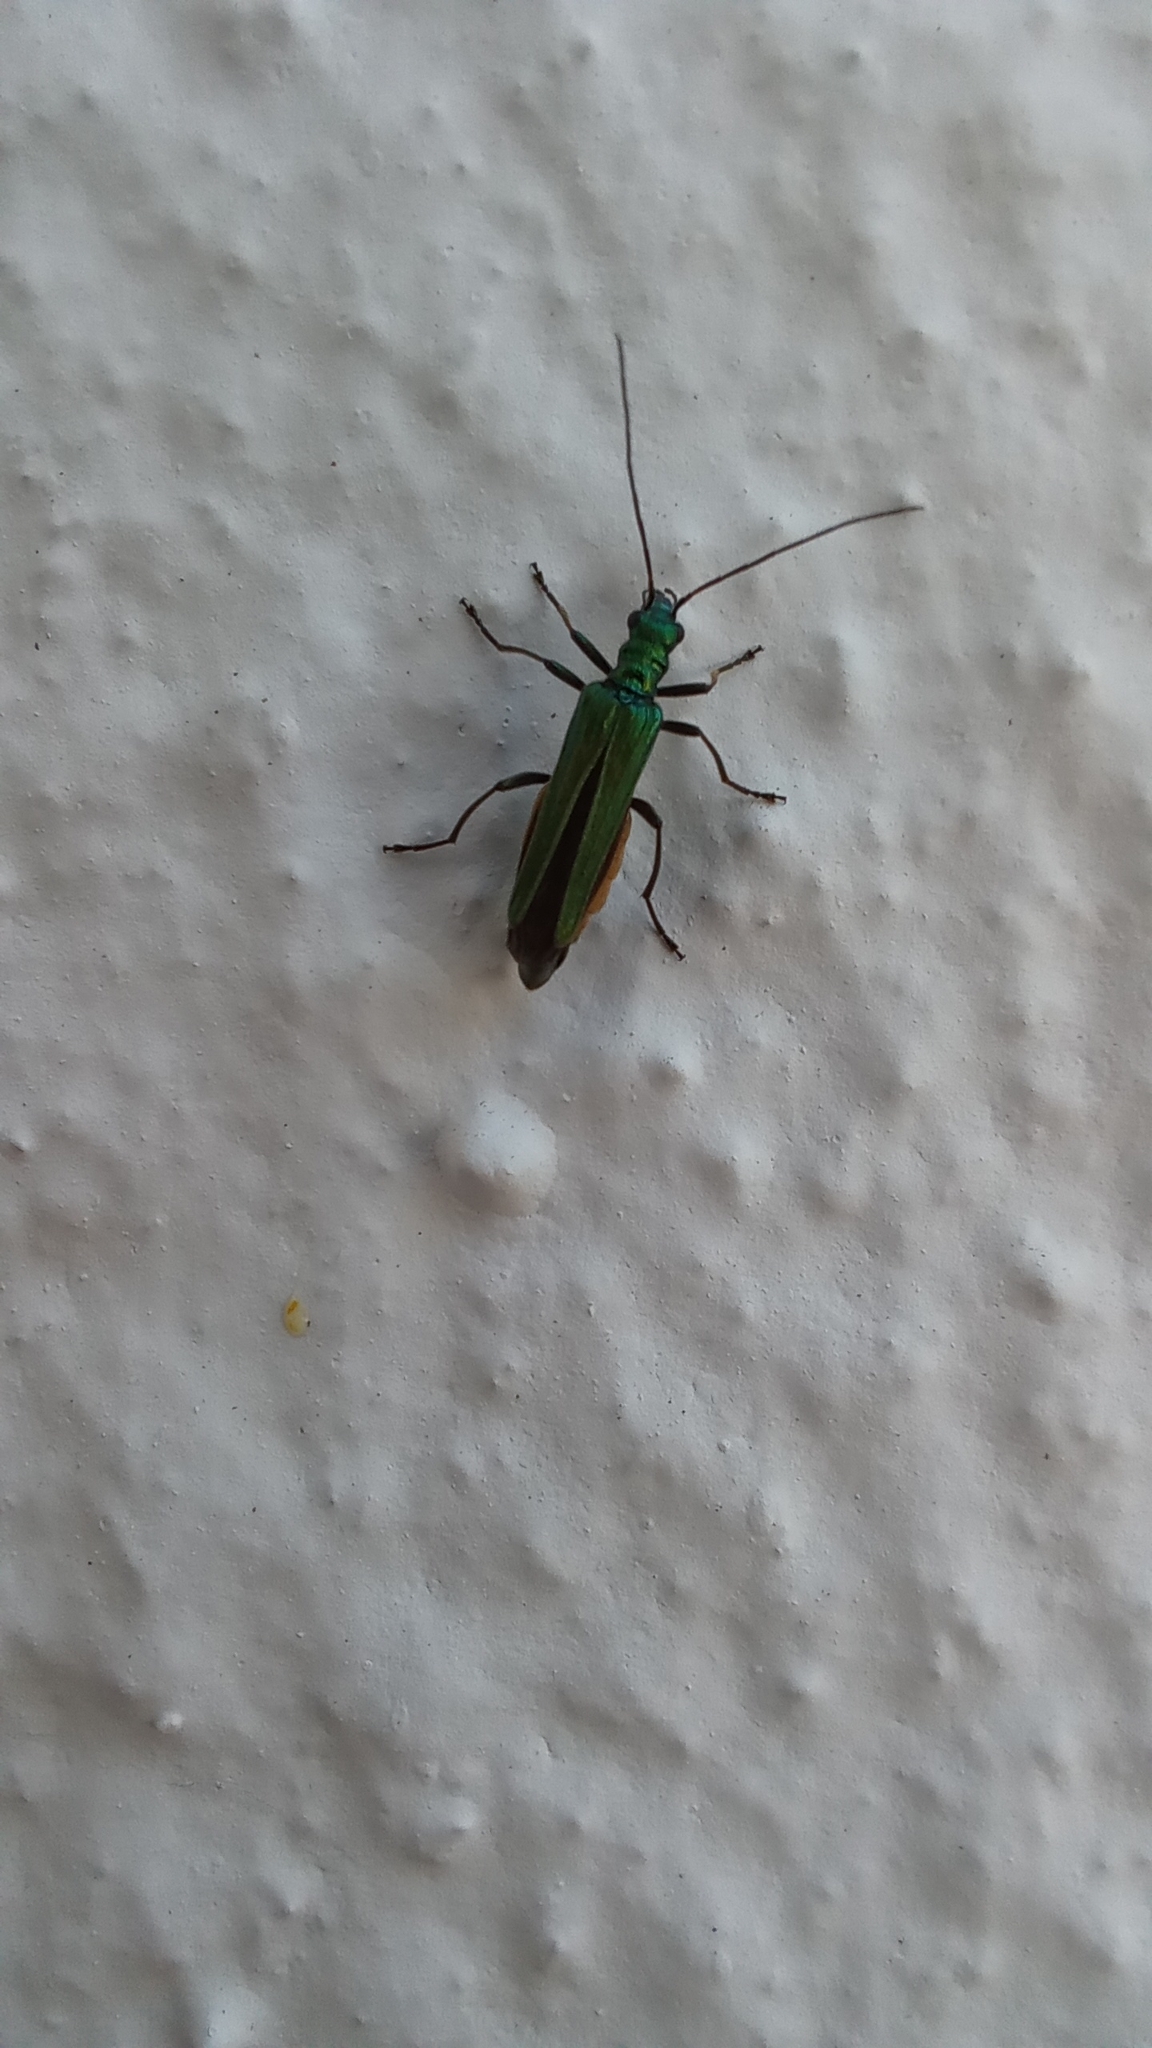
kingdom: Animalia
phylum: Arthropoda
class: Insecta
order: Coleoptera
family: Oedemeridae
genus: Oedemera
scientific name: Oedemera nobilis
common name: Swollen-thighed beetle
